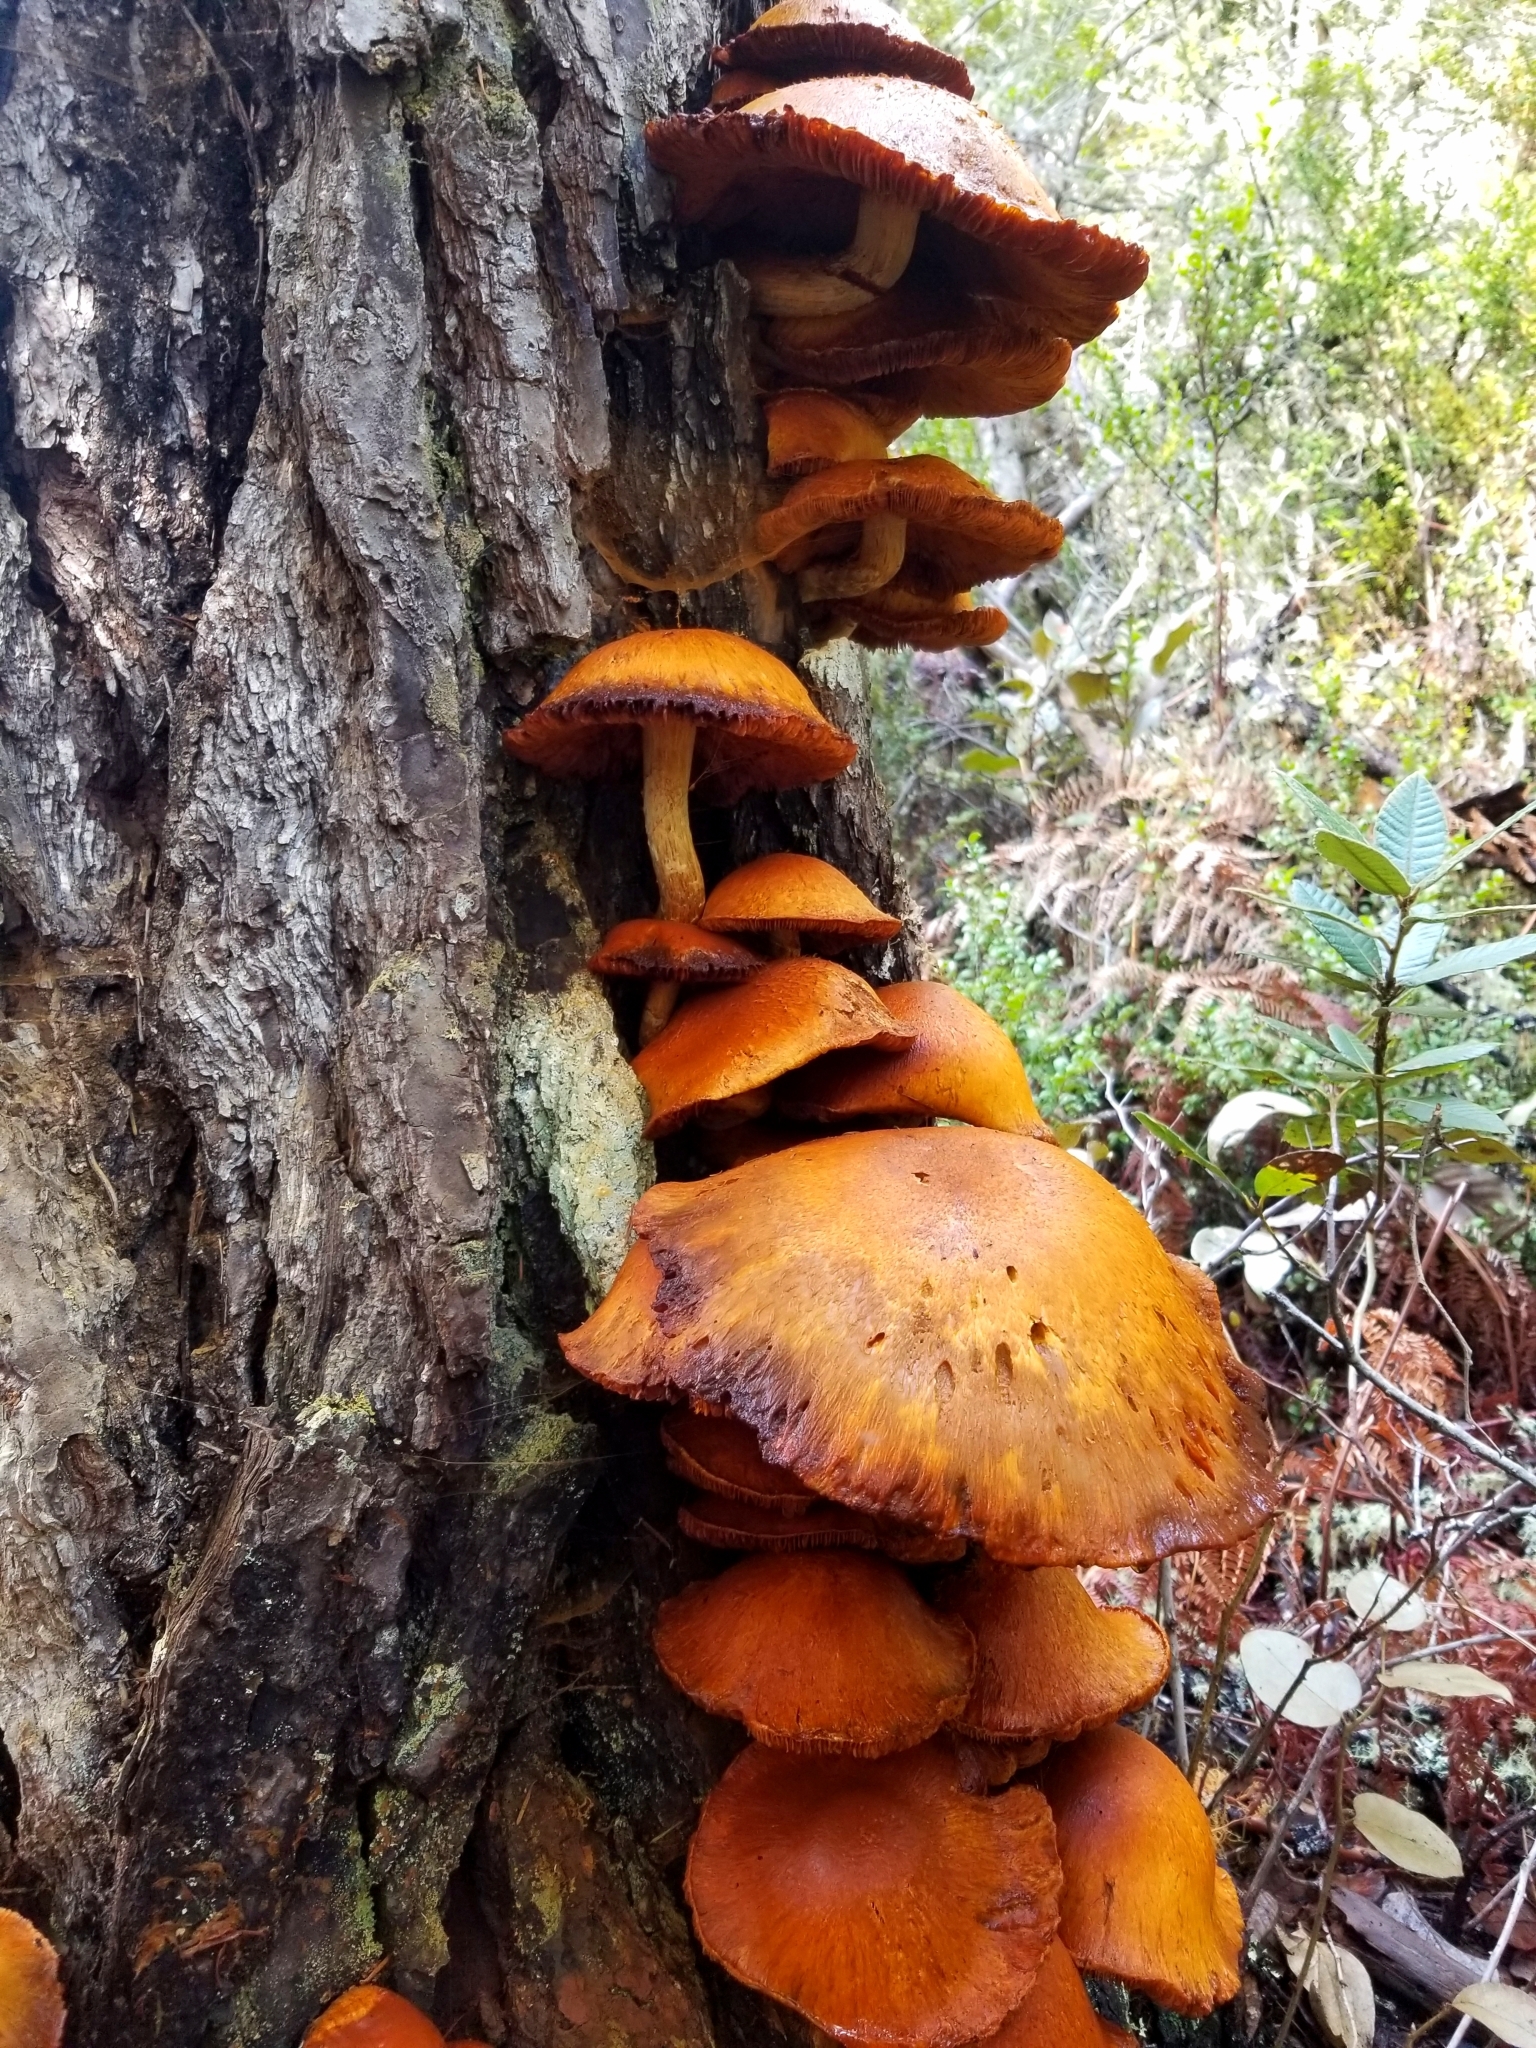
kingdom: Fungi
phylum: Basidiomycota
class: Agaricomycetes
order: Agaricales
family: Omphalotaceae
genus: Omphalotus
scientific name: Omphalotus olivascens
